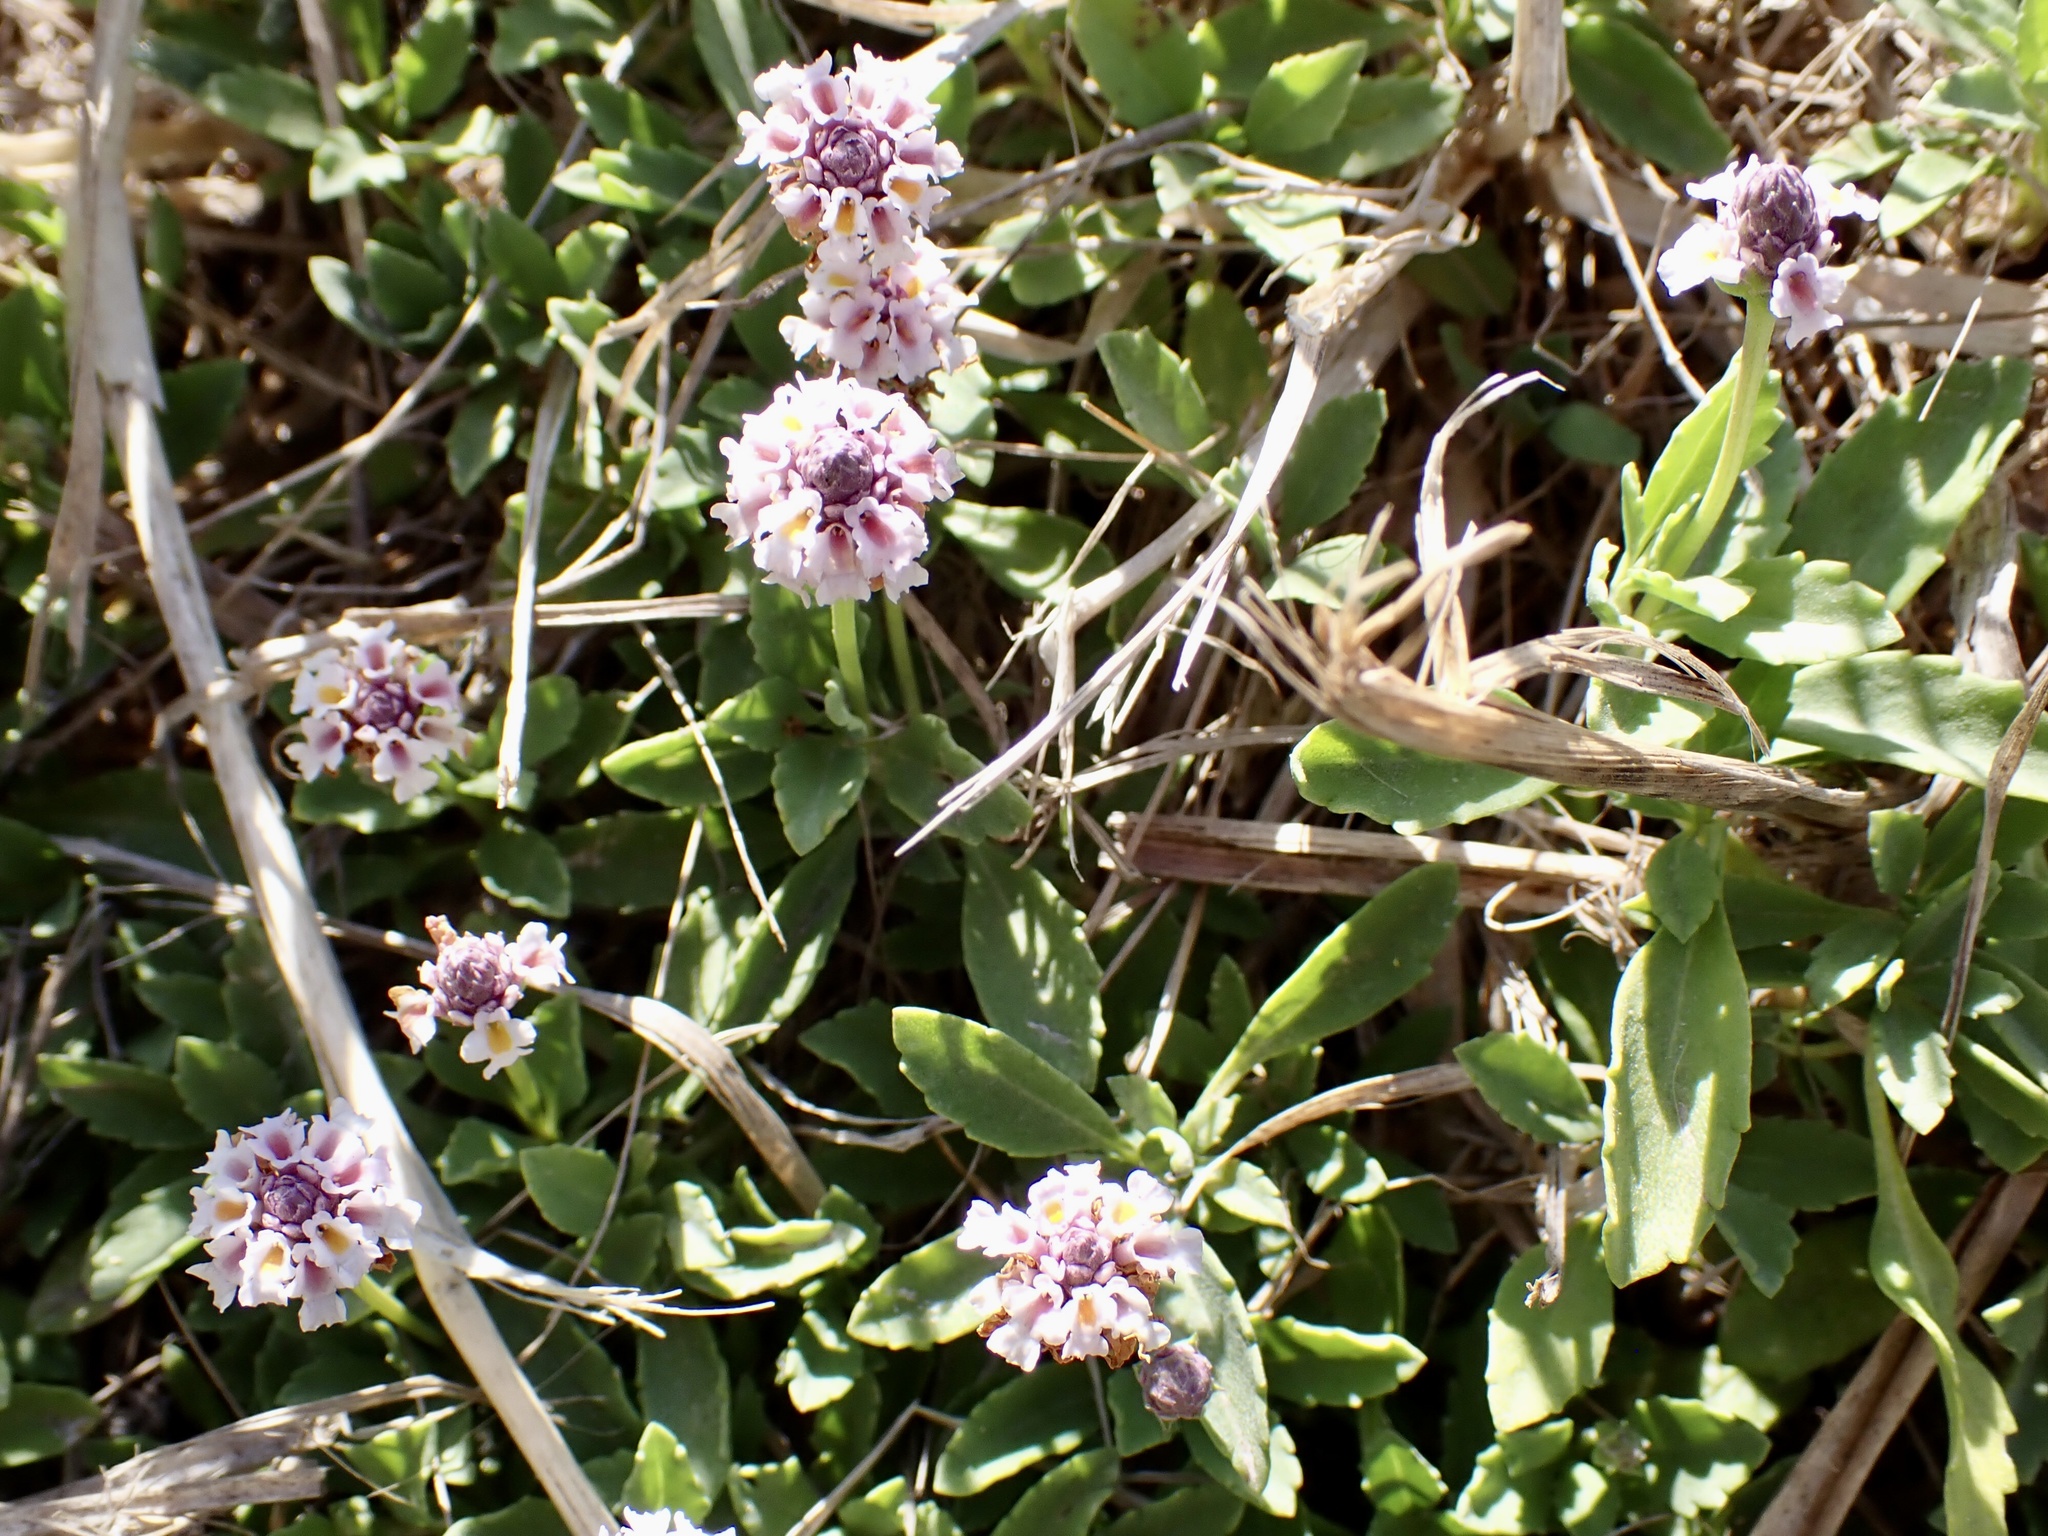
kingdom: Plantae
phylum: Tracheophyta
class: Magnoliopsida
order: Lamiales
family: Verbenaceae
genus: Phyla
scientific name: Phyla nodiflora
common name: Frogfruit
